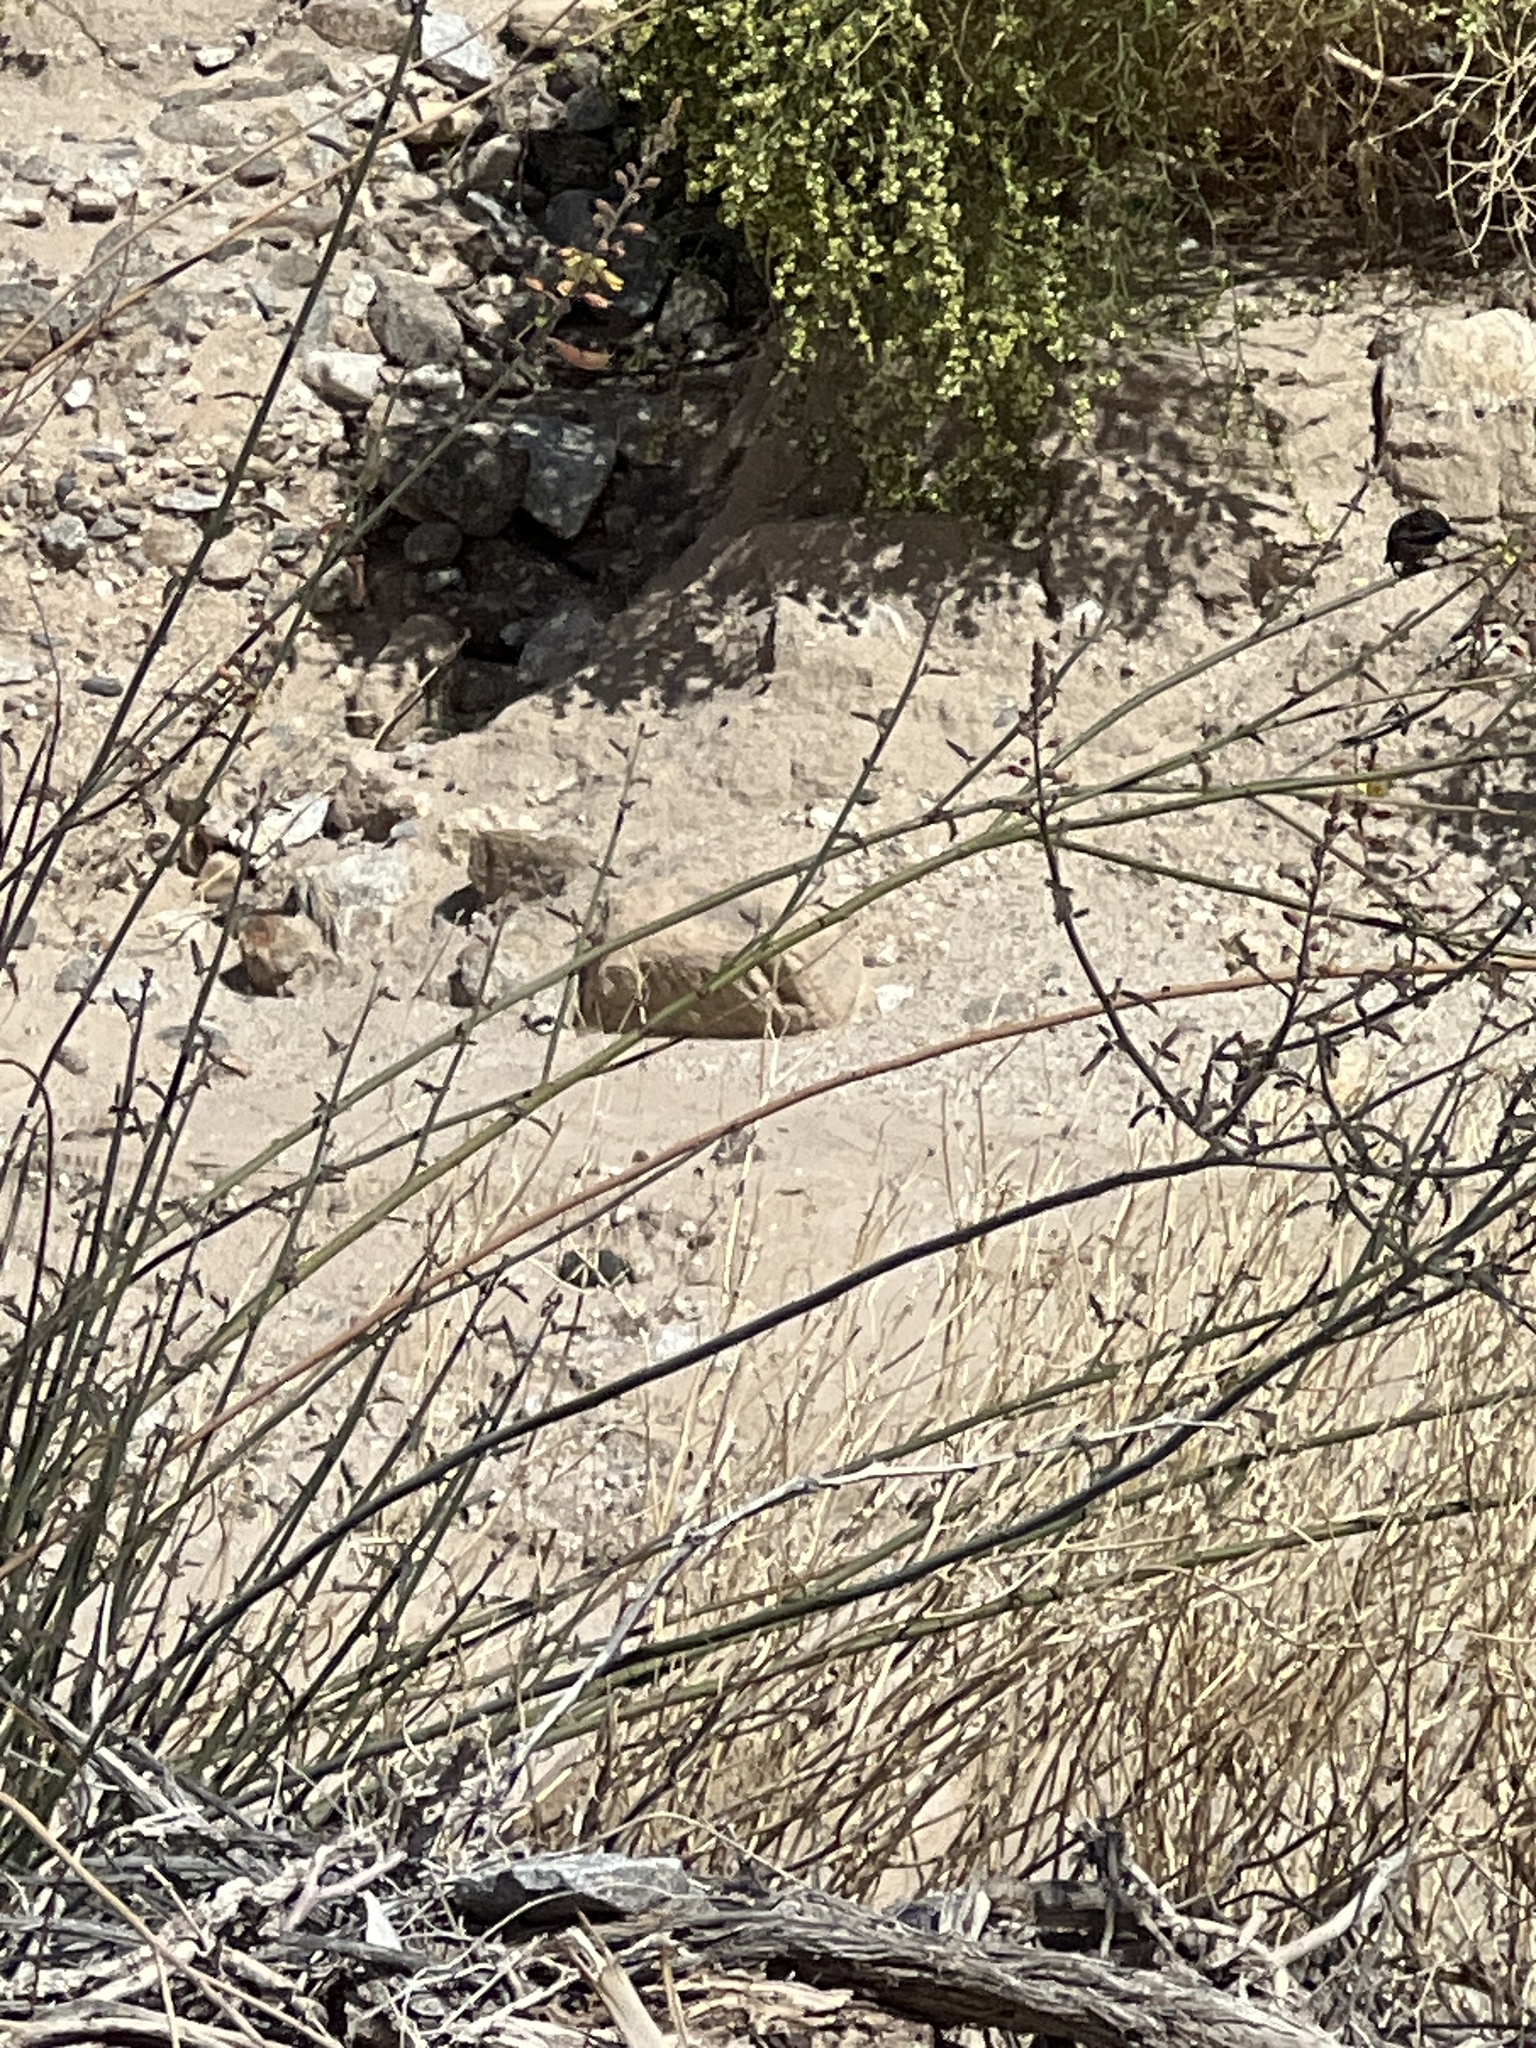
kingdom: Animalia
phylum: Chordata
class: Aves
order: Apodiformes
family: Trochilidae
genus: Calypte
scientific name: Calypte costae
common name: Costa's hummingbird
